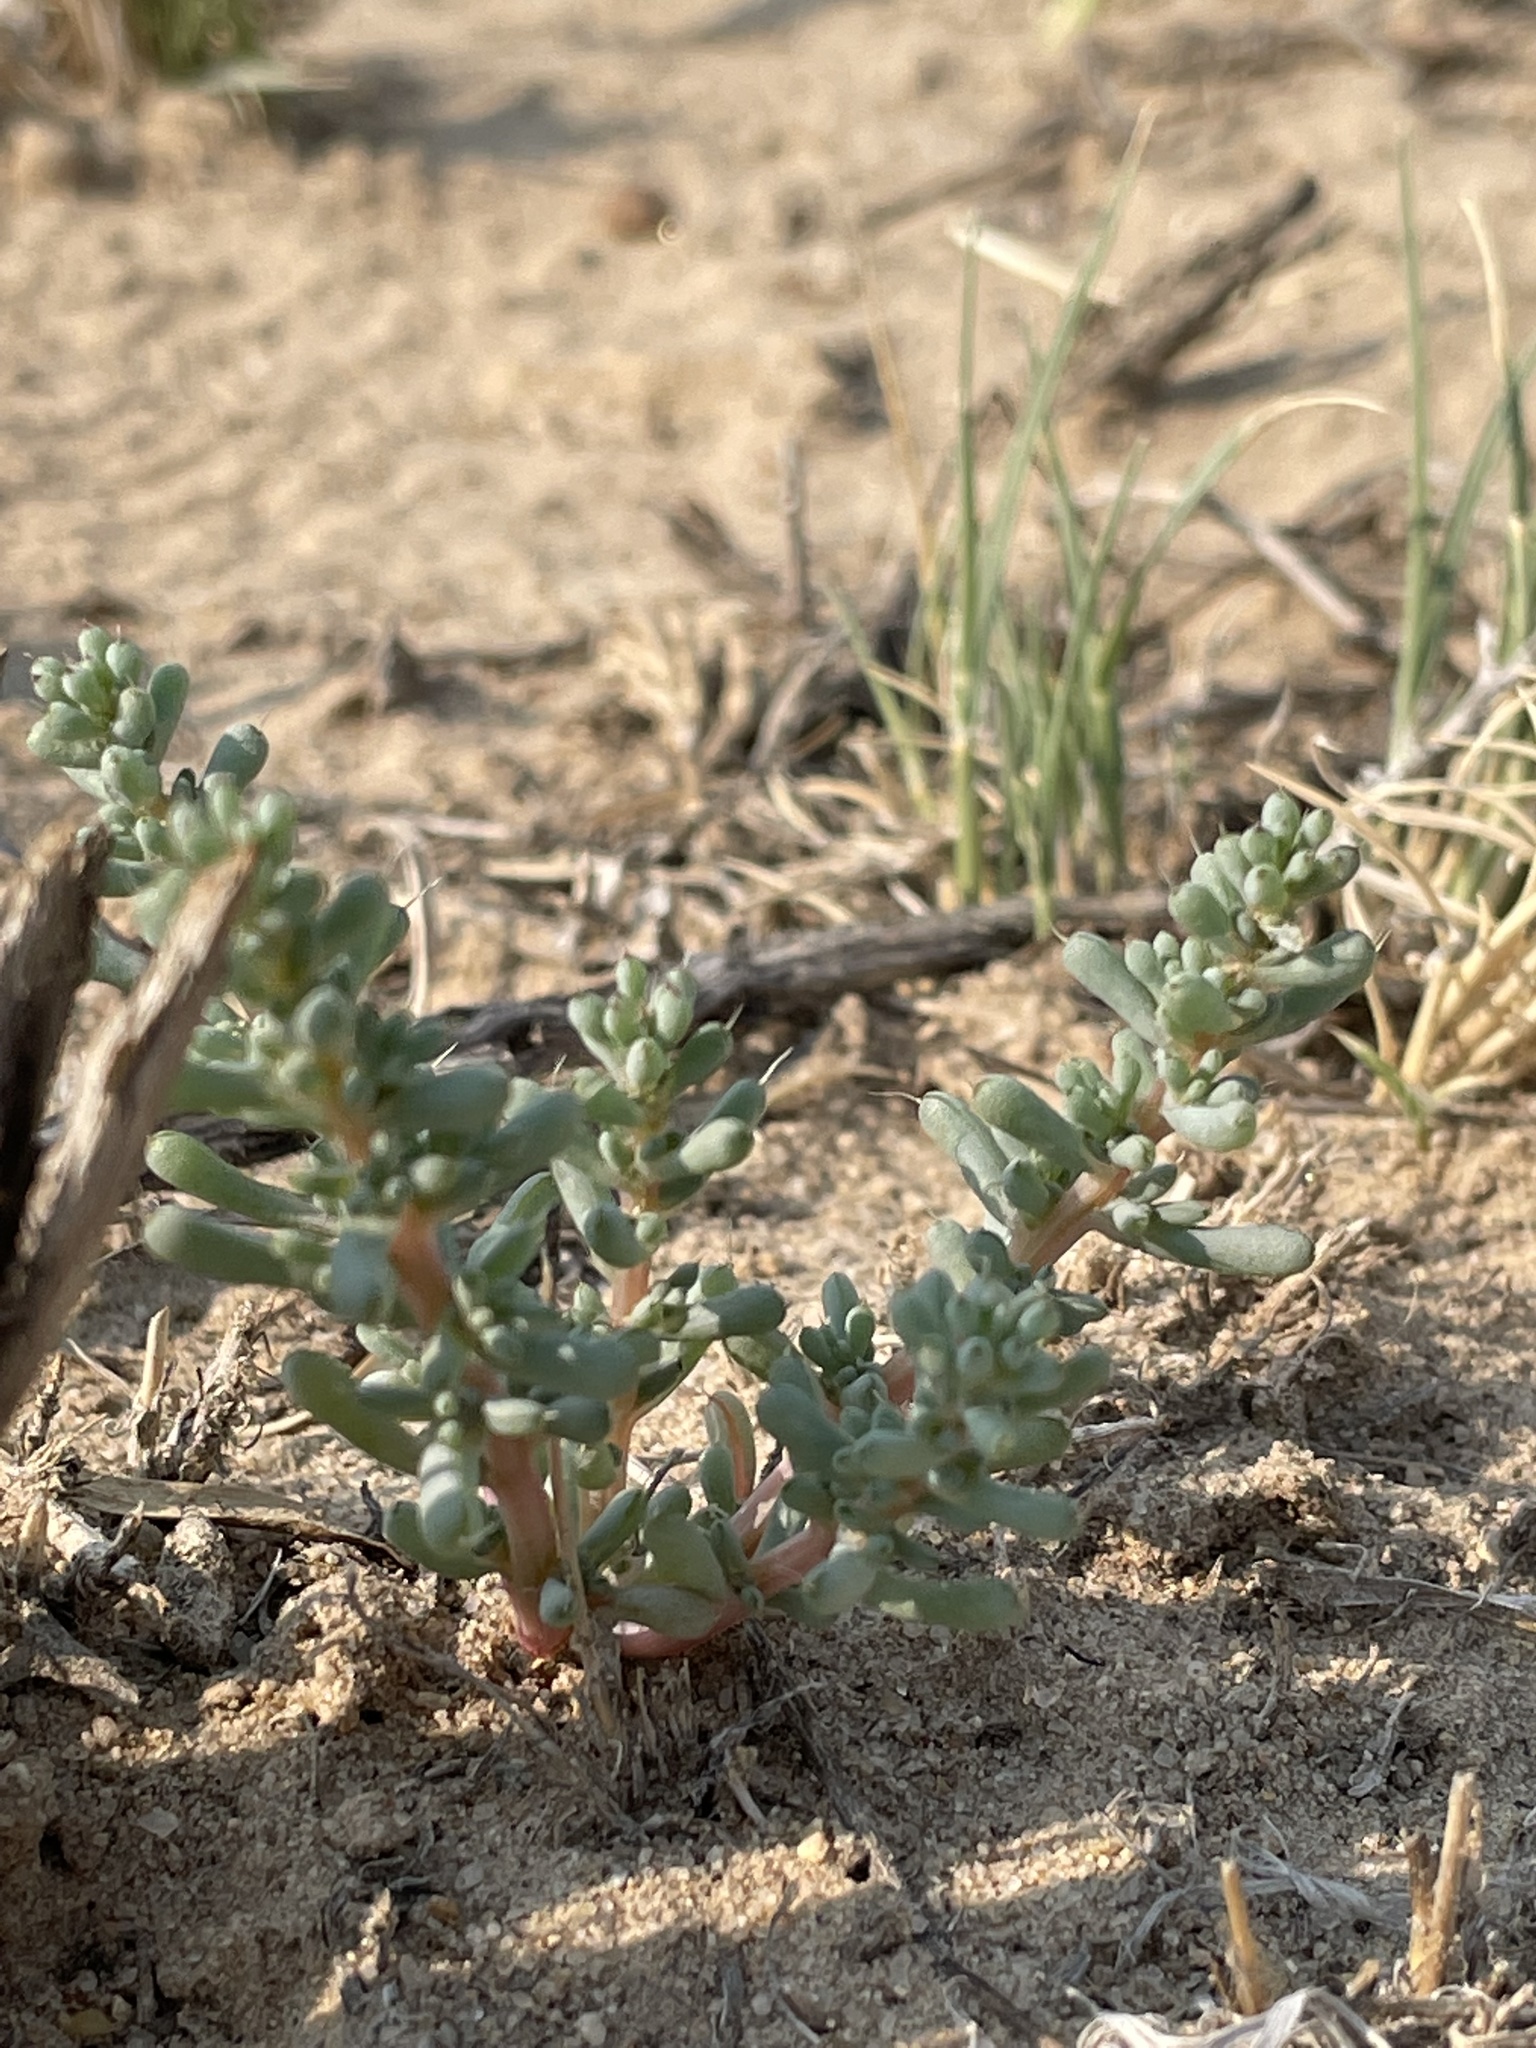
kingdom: Plantae
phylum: Tracheophyta
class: Magnoliopsida
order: Caryophyllales
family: Amaranthaceae
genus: Halogeton
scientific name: Halogeton glomeratus
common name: Saltlover
